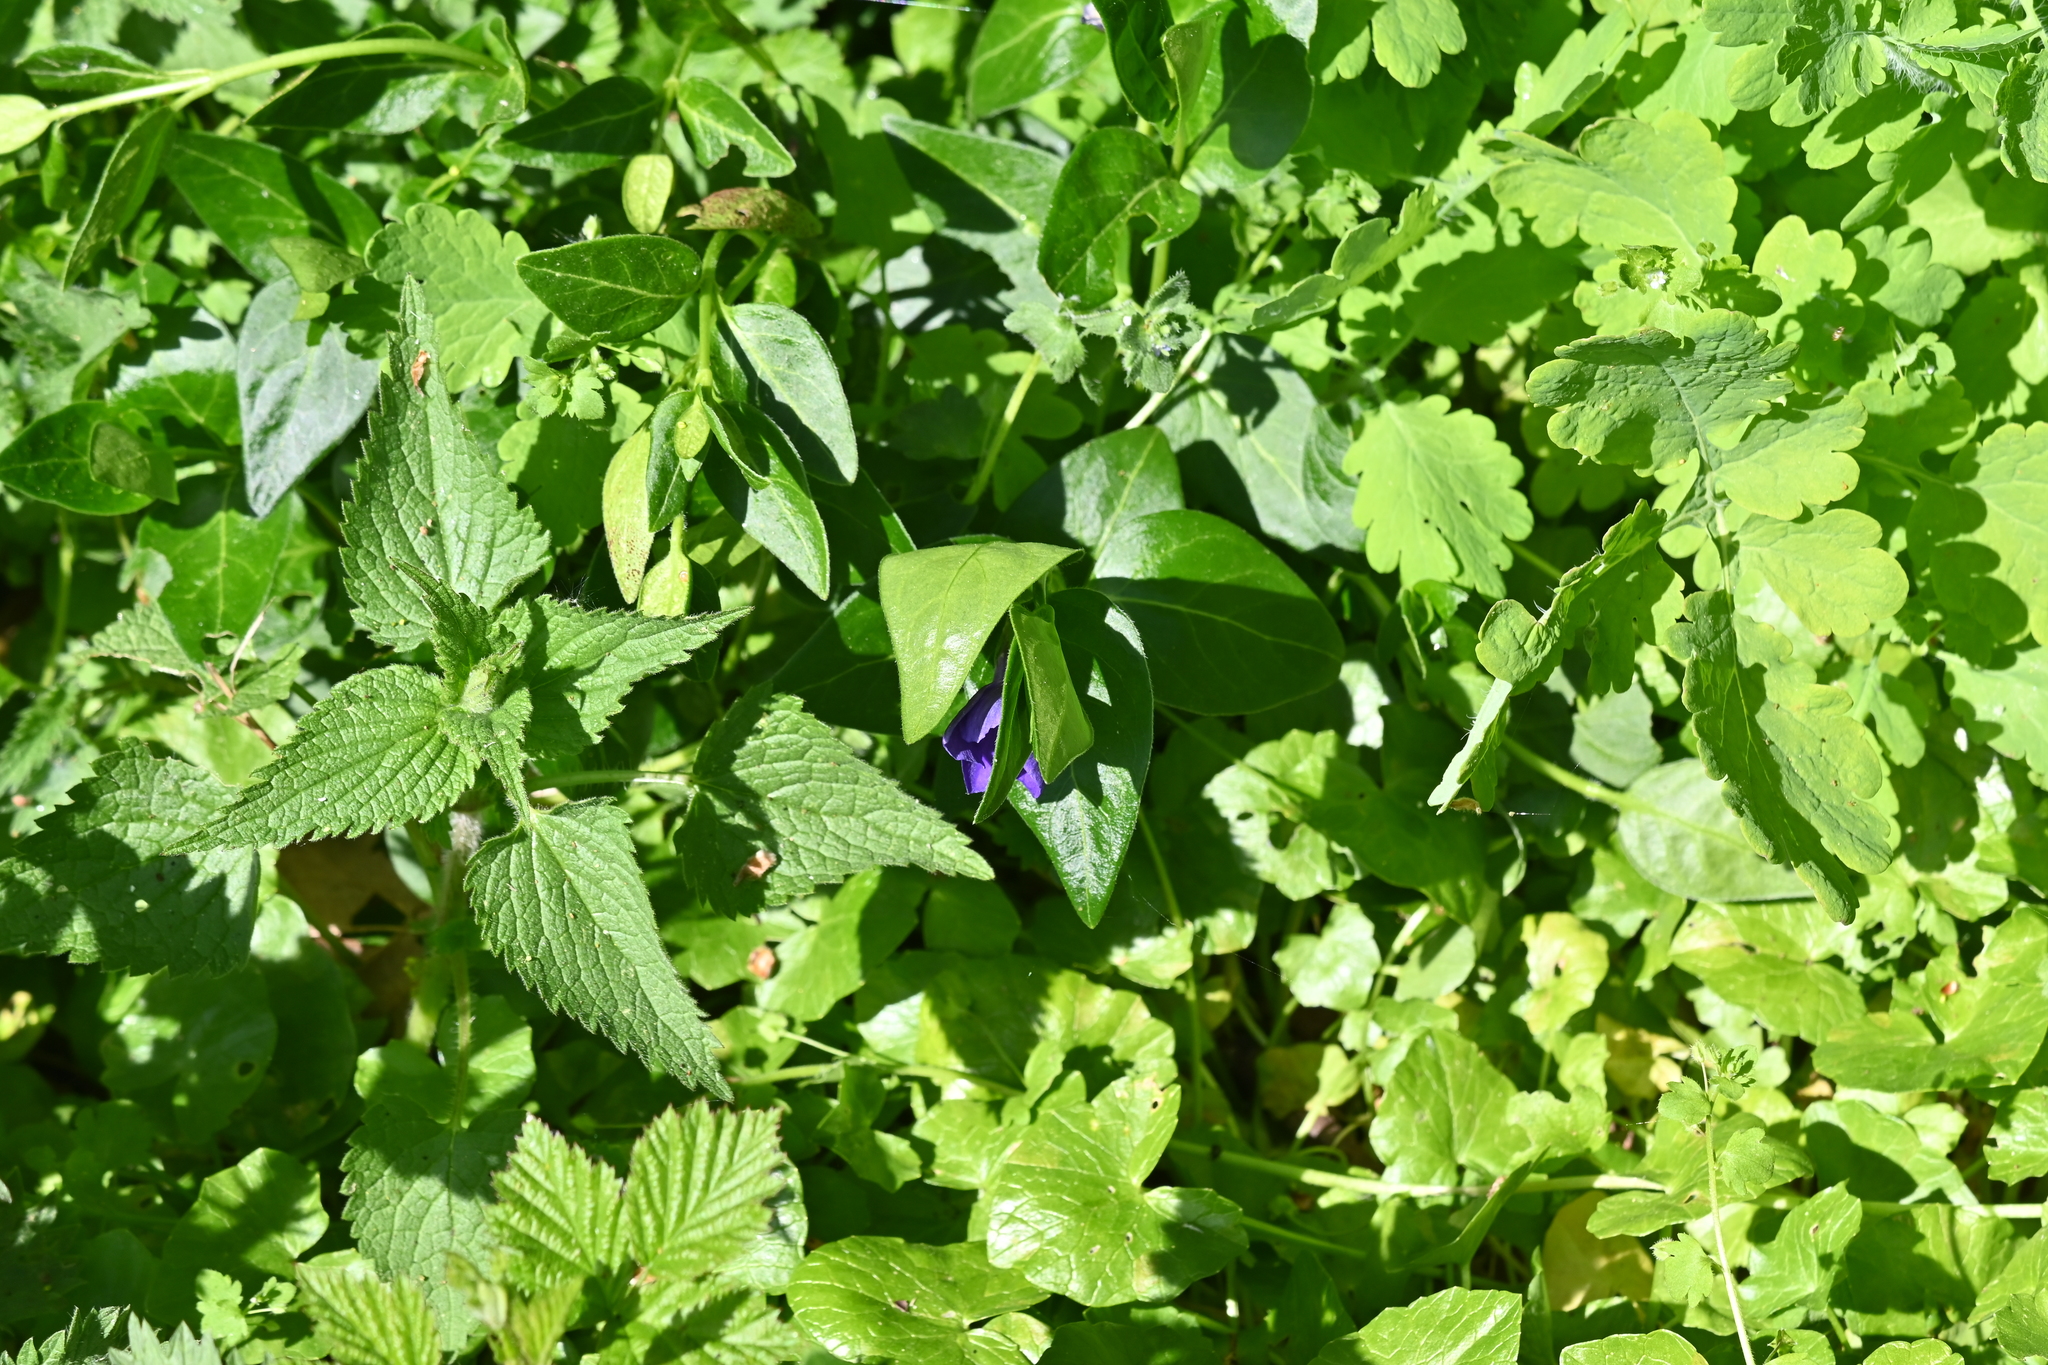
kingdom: Plantae
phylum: Tracheophyta
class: Magnoliopsida
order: Gentianales
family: Apocynaceae
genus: Vinca
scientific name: Vinca major
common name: Greater periwinkle
